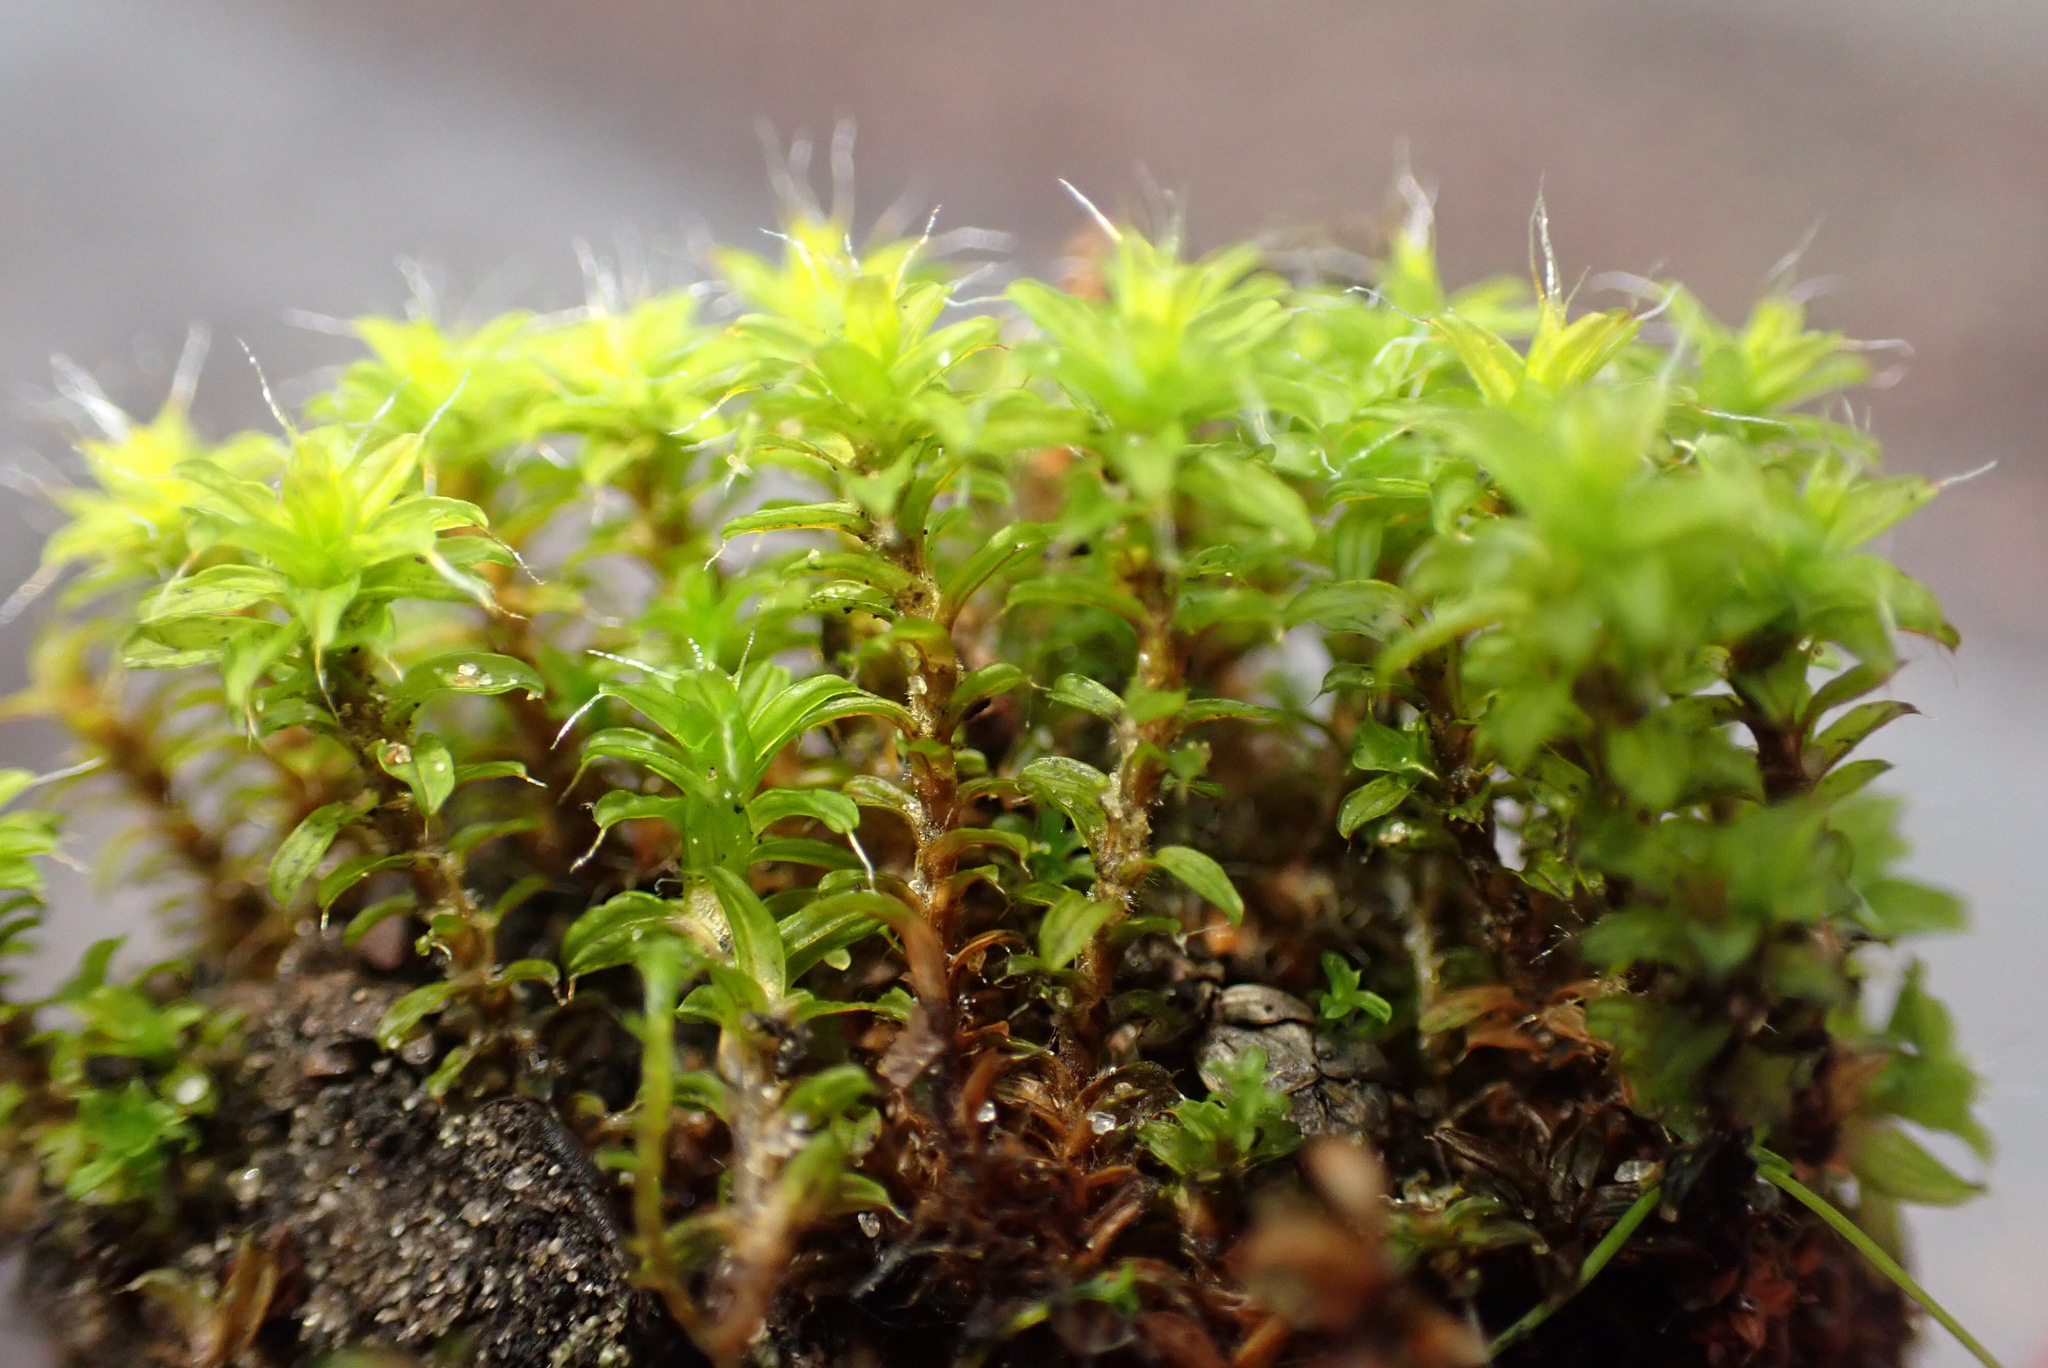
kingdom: Plantae
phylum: Bryophyta
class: Bryopsida
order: Pottiales
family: Pottiaceae
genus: Syntrichia
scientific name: Syntrichia ruralis
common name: Sidewalk screw moss
